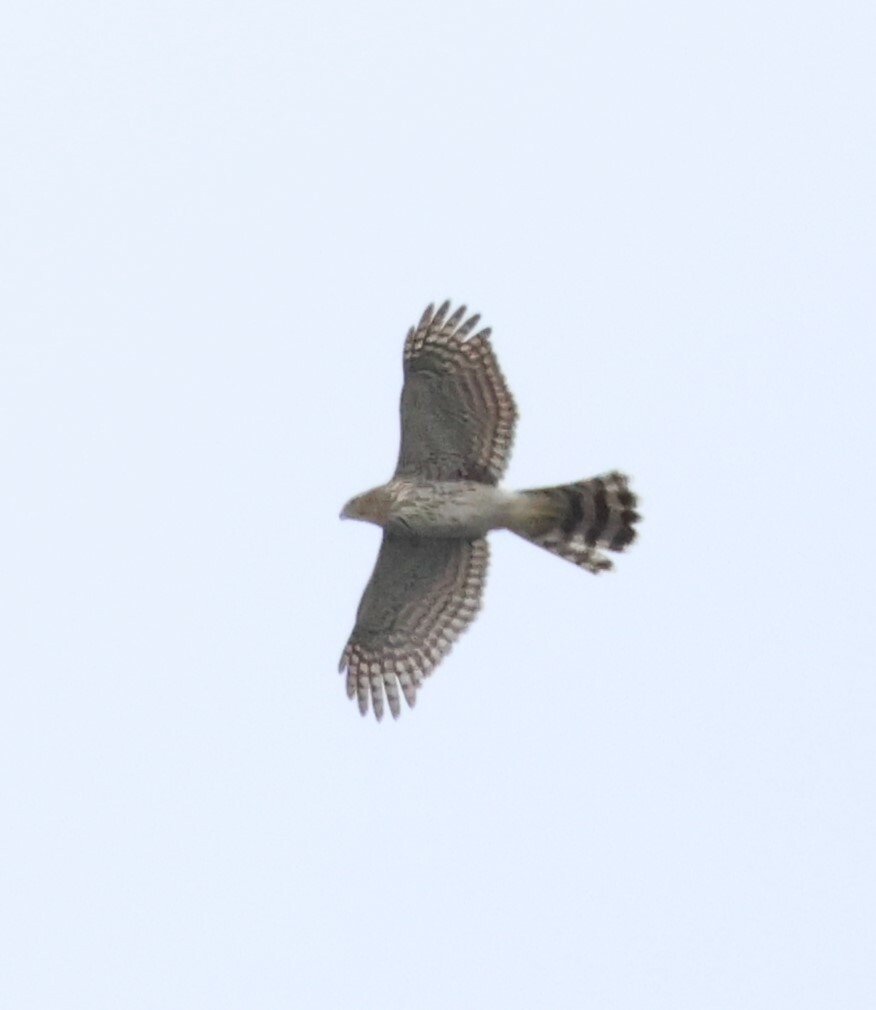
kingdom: Animalia
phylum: Chordata
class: Aves
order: Accipitriformes
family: Accipitridae
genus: Accipiter
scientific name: Accipiter cooperii
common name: Cooper's hawk
